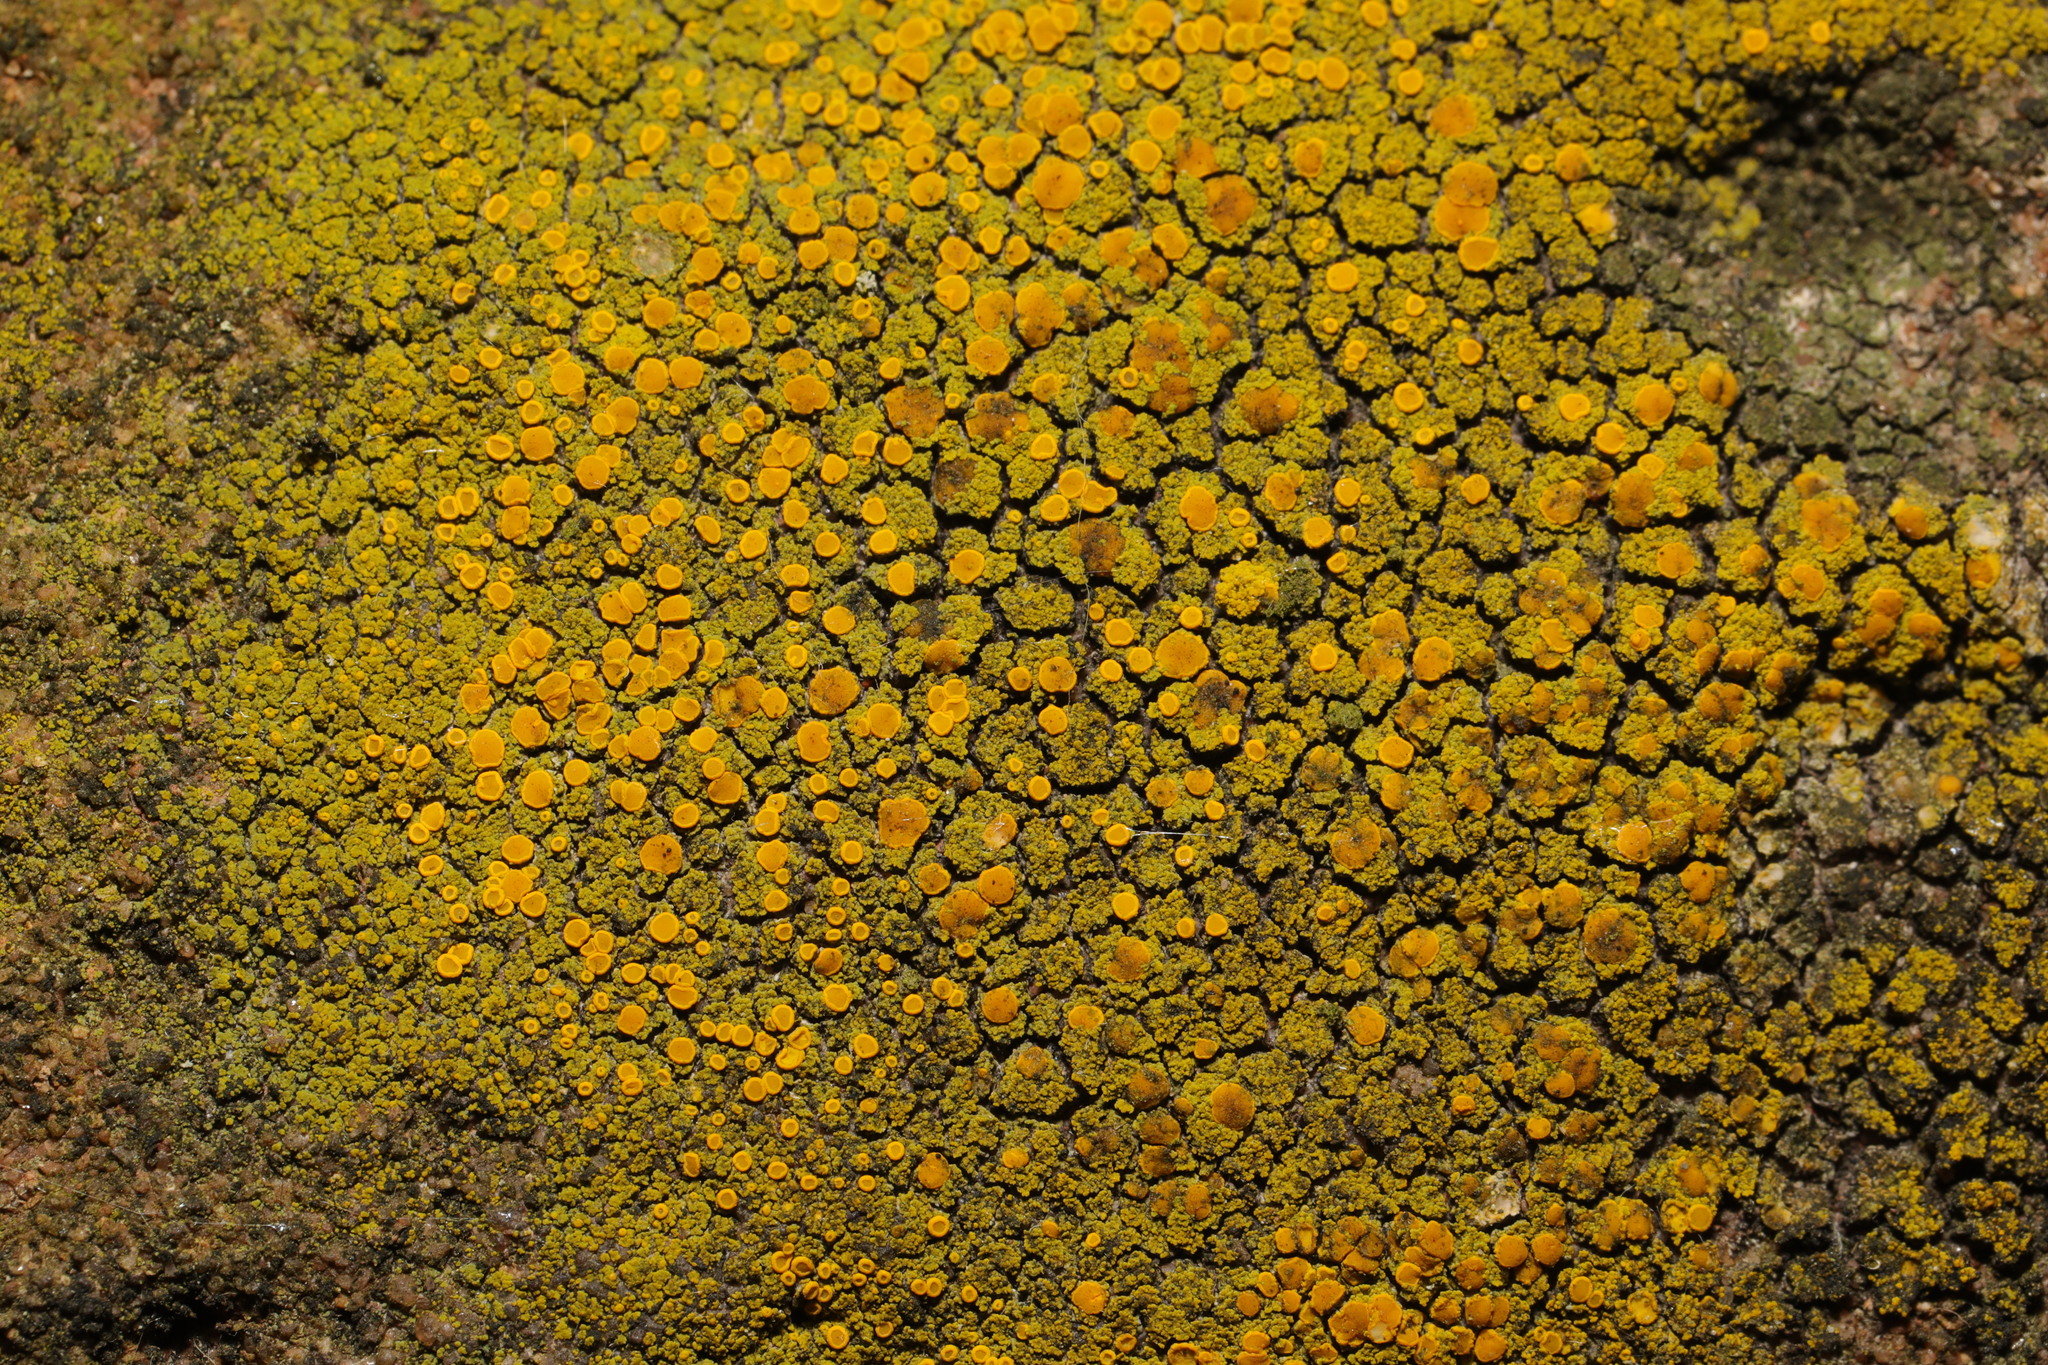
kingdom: Fungi
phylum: Ascomycota
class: Candelariomycetes
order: Candelariales
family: Candelariaceae
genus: Candelariella
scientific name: Candelariella vitellina
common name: Common goldspeck
